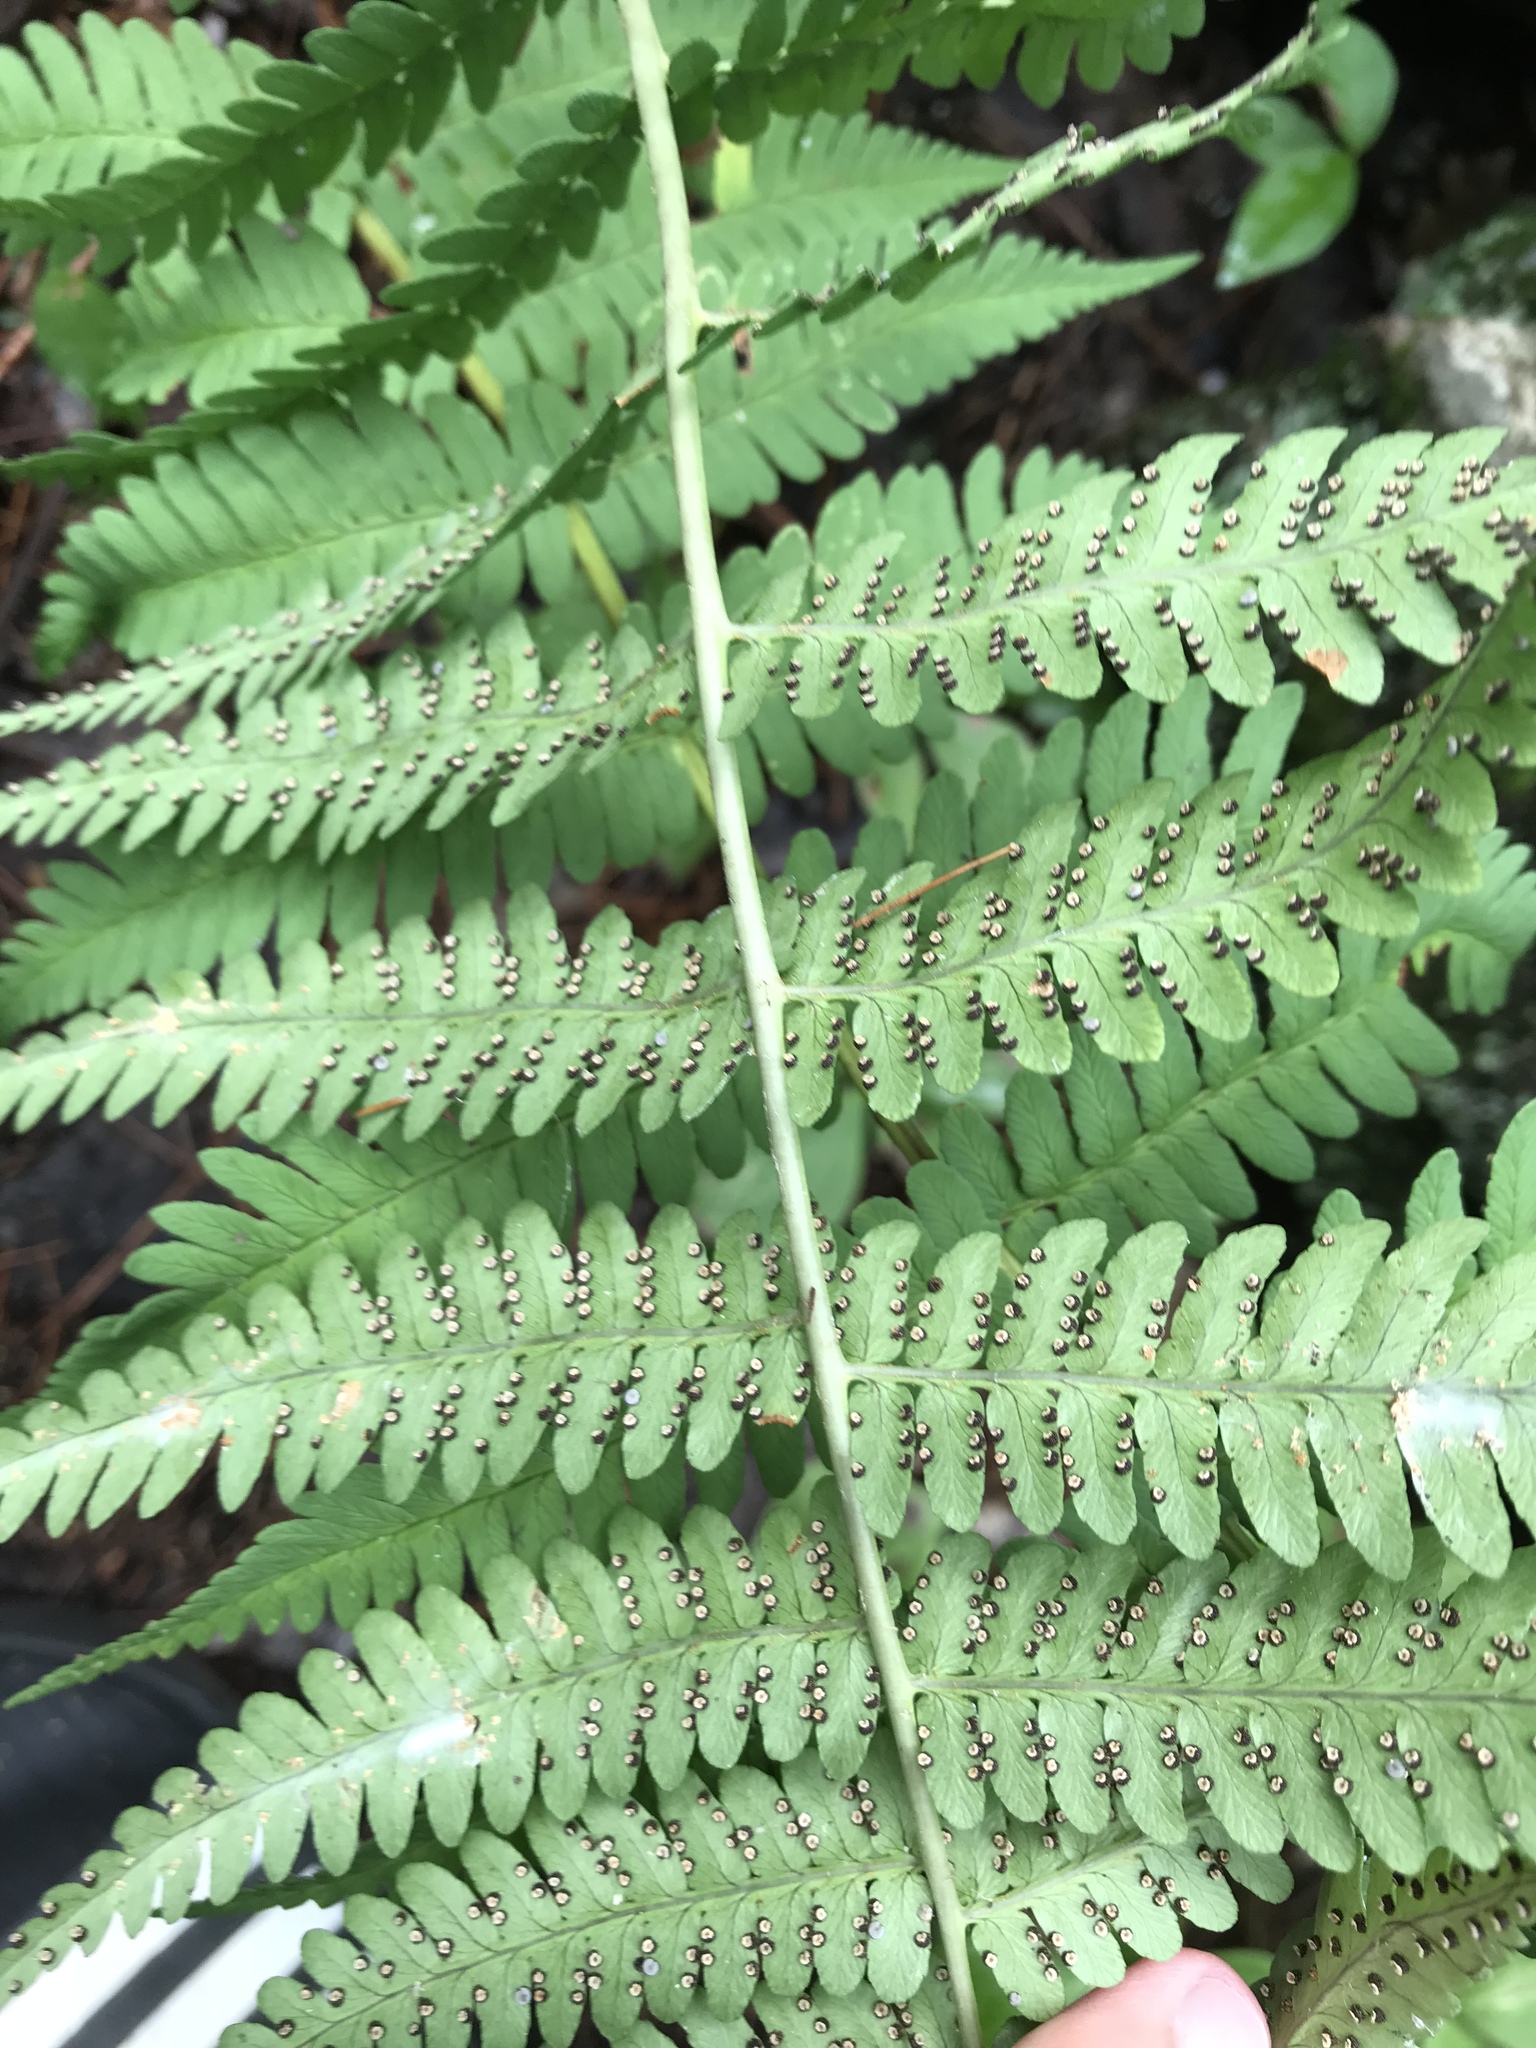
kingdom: Plantae
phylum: Tracheophyta
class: Polypodiopsida
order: Polypodiales
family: Dryopteridaceae
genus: Dryopteris
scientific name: Dryopteris marginalis
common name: Marginal wood fern
